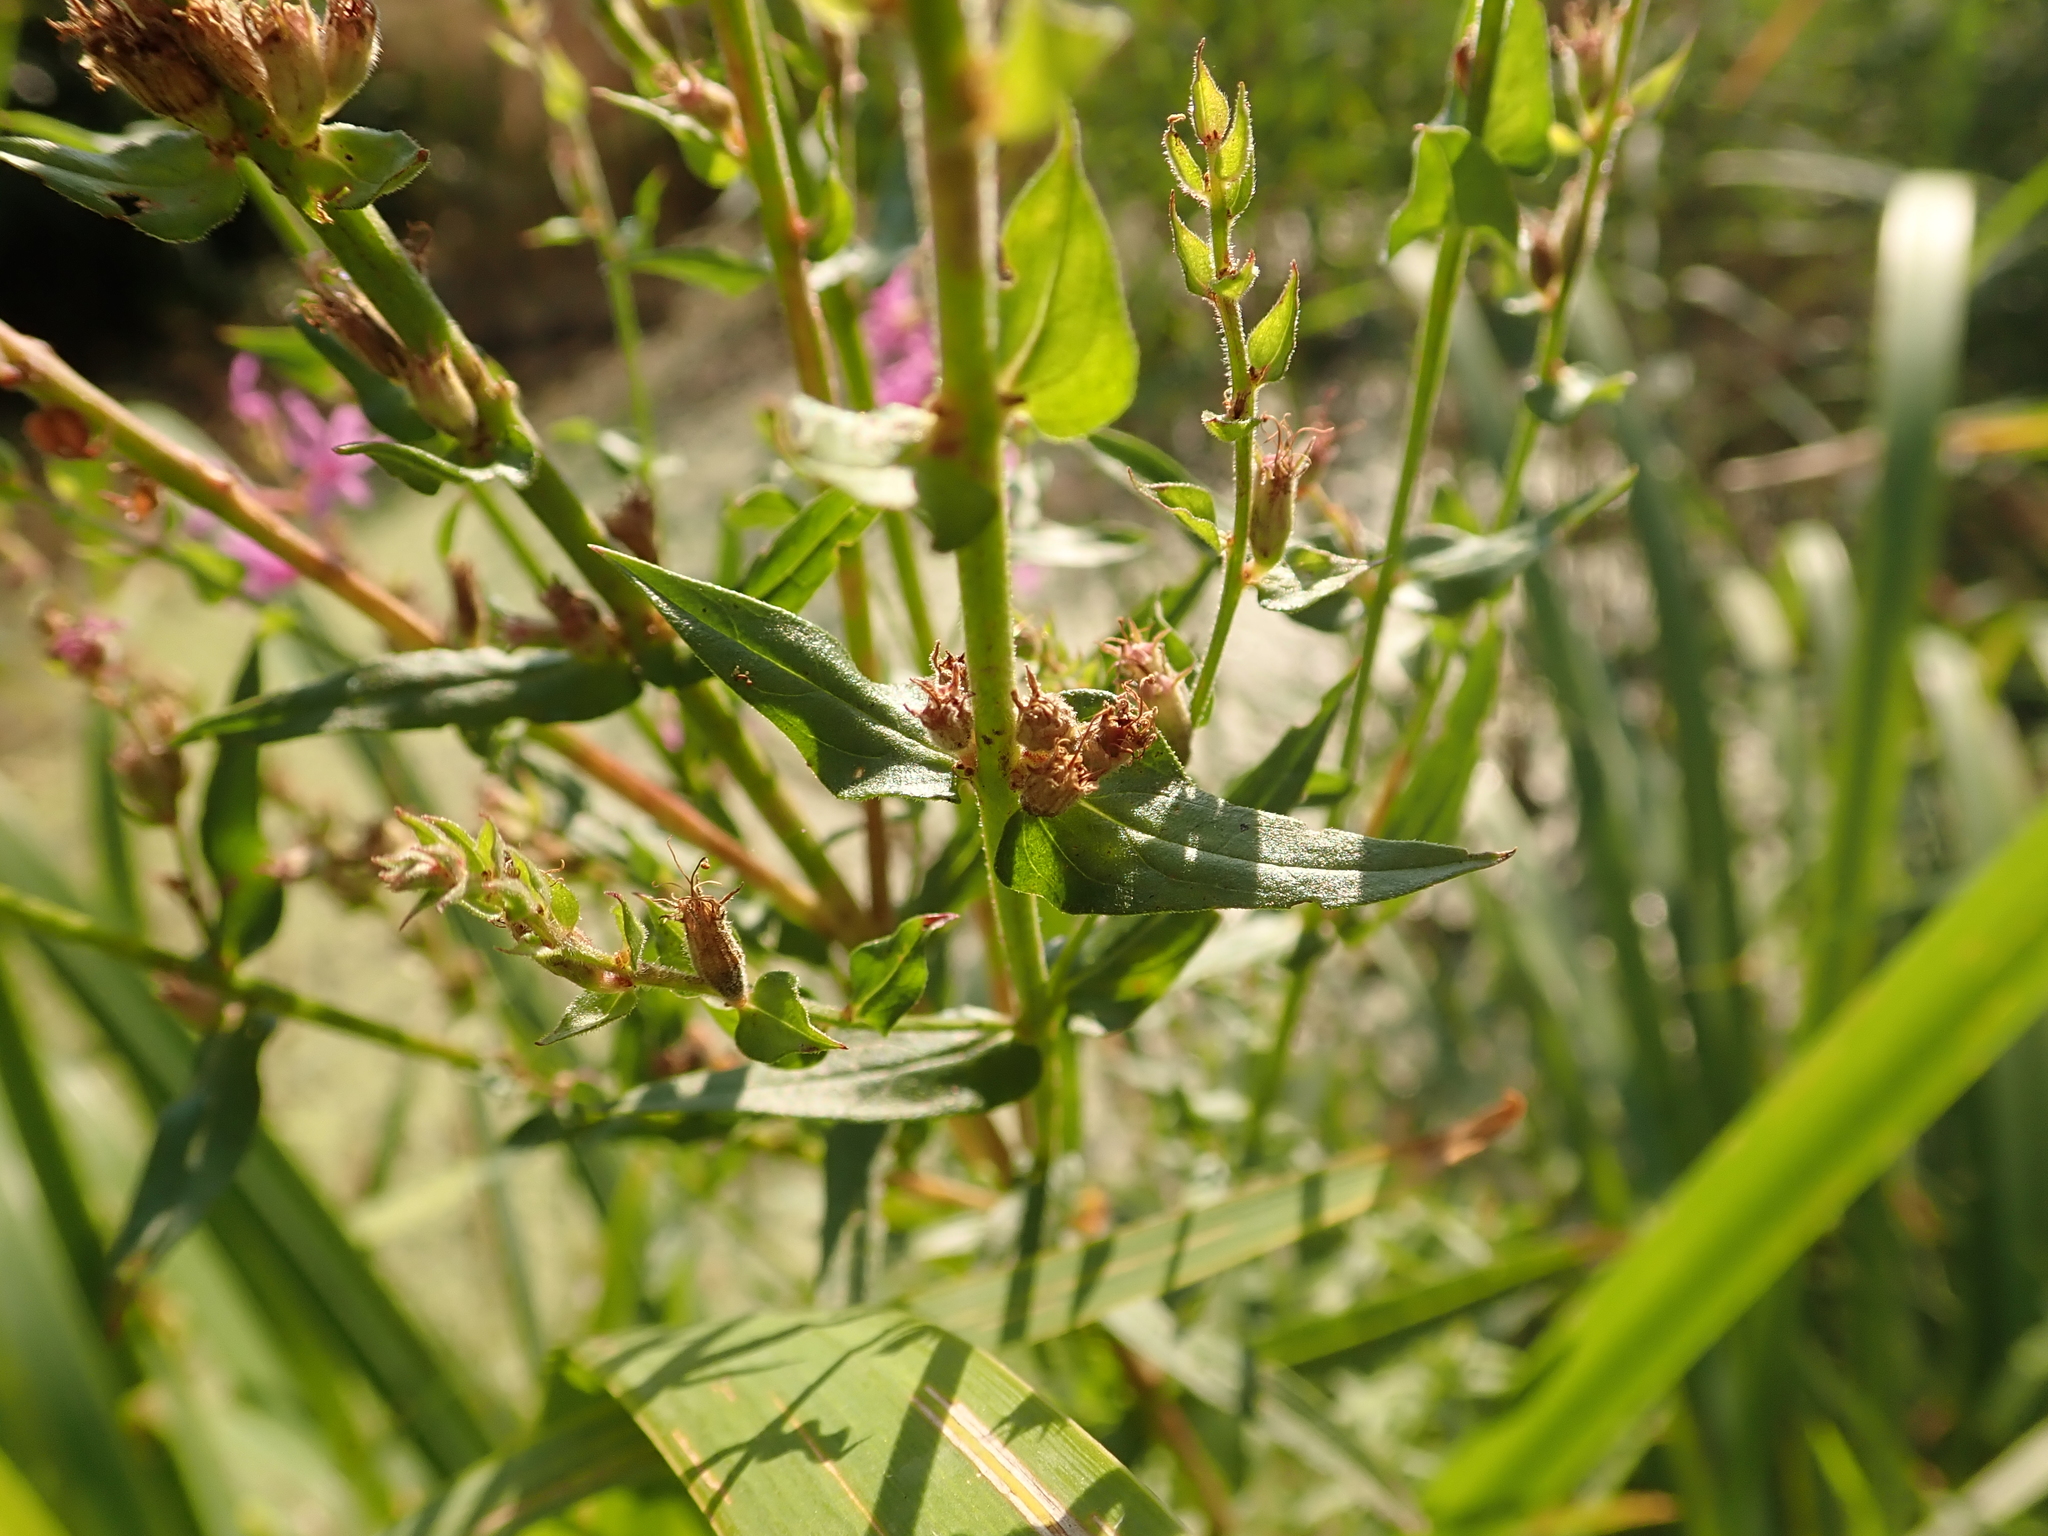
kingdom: Plantae
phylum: Tracheophyta
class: Magnoliopsida
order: Myrtales
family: Lythraceae
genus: Lythrum
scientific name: Lythrum salicaria
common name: Purple loosestrife
